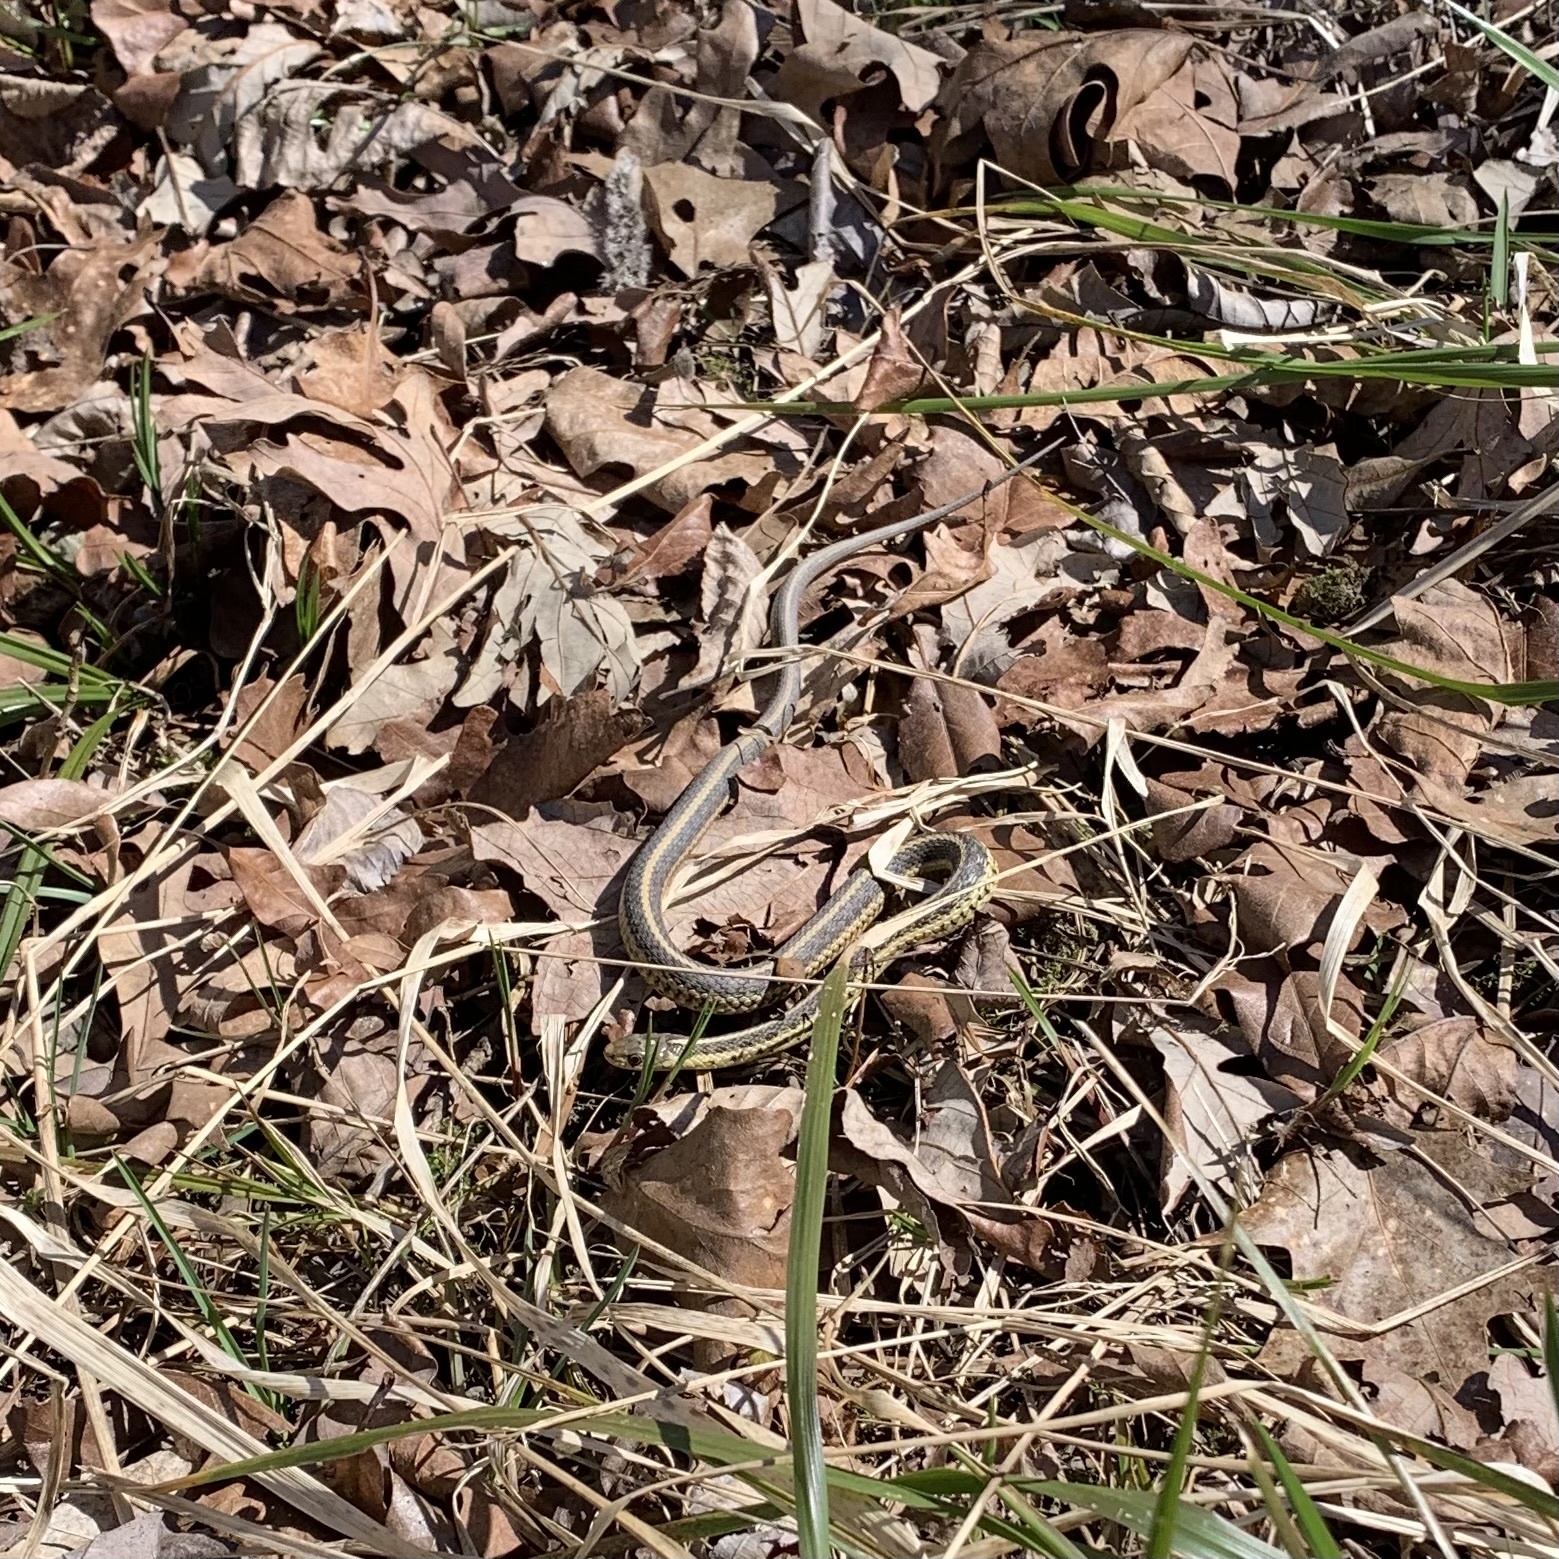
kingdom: Animalia
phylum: Chordata
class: Squamata
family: Colubridae
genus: Thamnophis
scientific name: Thamnophis sirtalis
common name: Common garter snake
